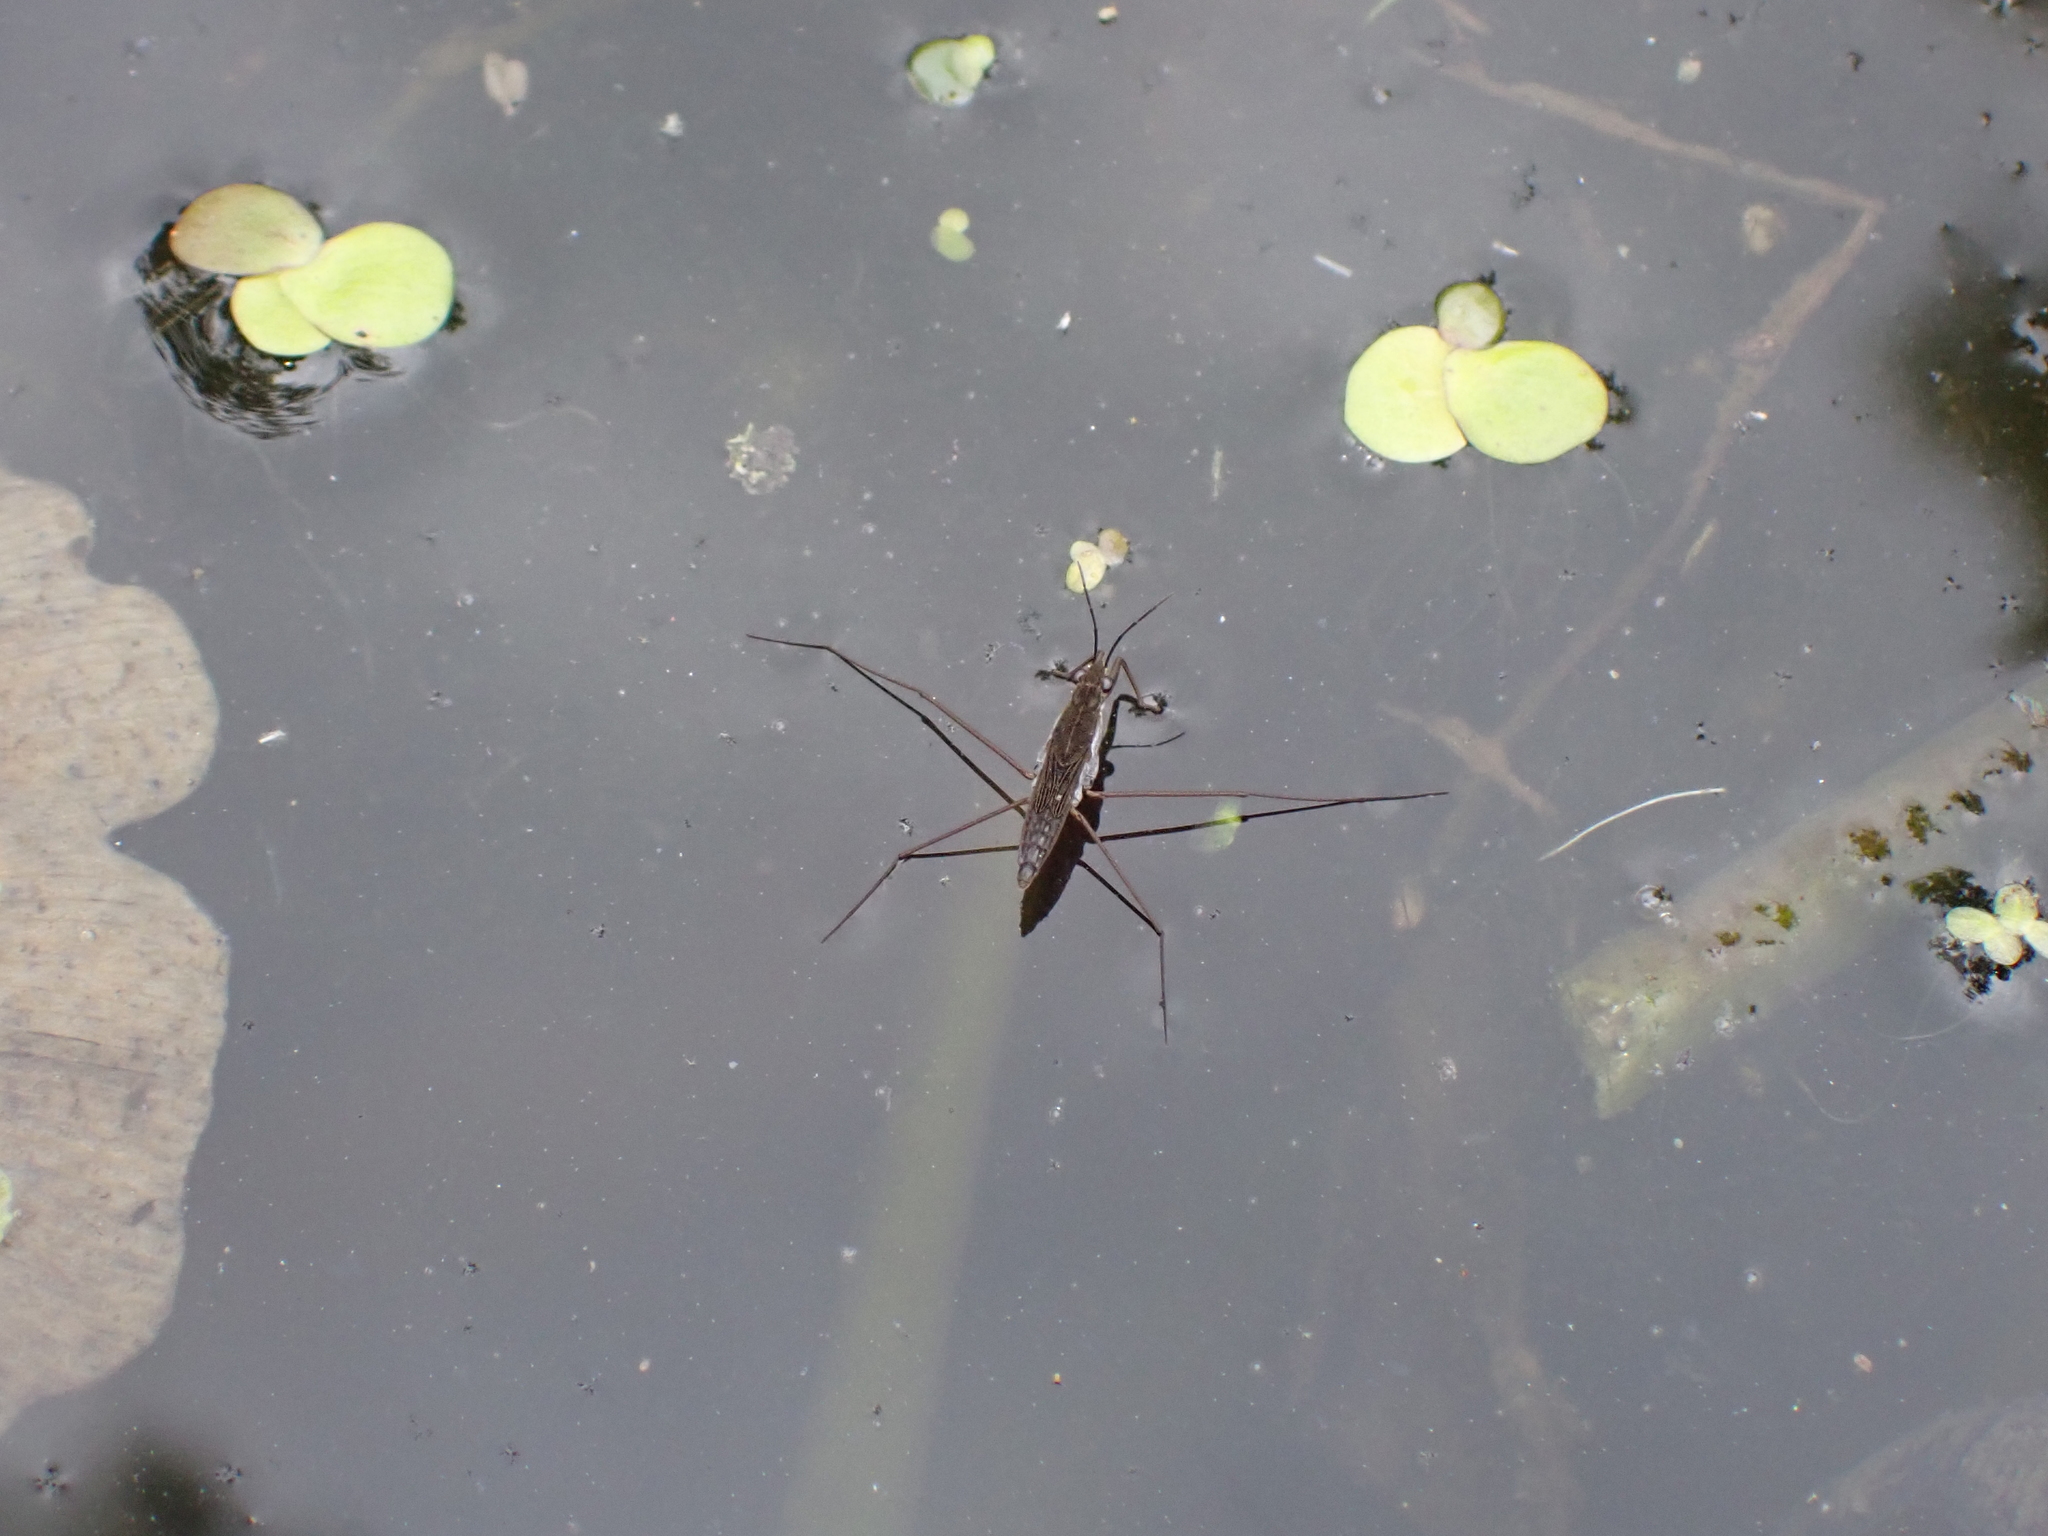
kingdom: Animalia
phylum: Arthropoda
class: Insecta
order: Hemiptera
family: Gerridae
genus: Gerris
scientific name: Gerris
